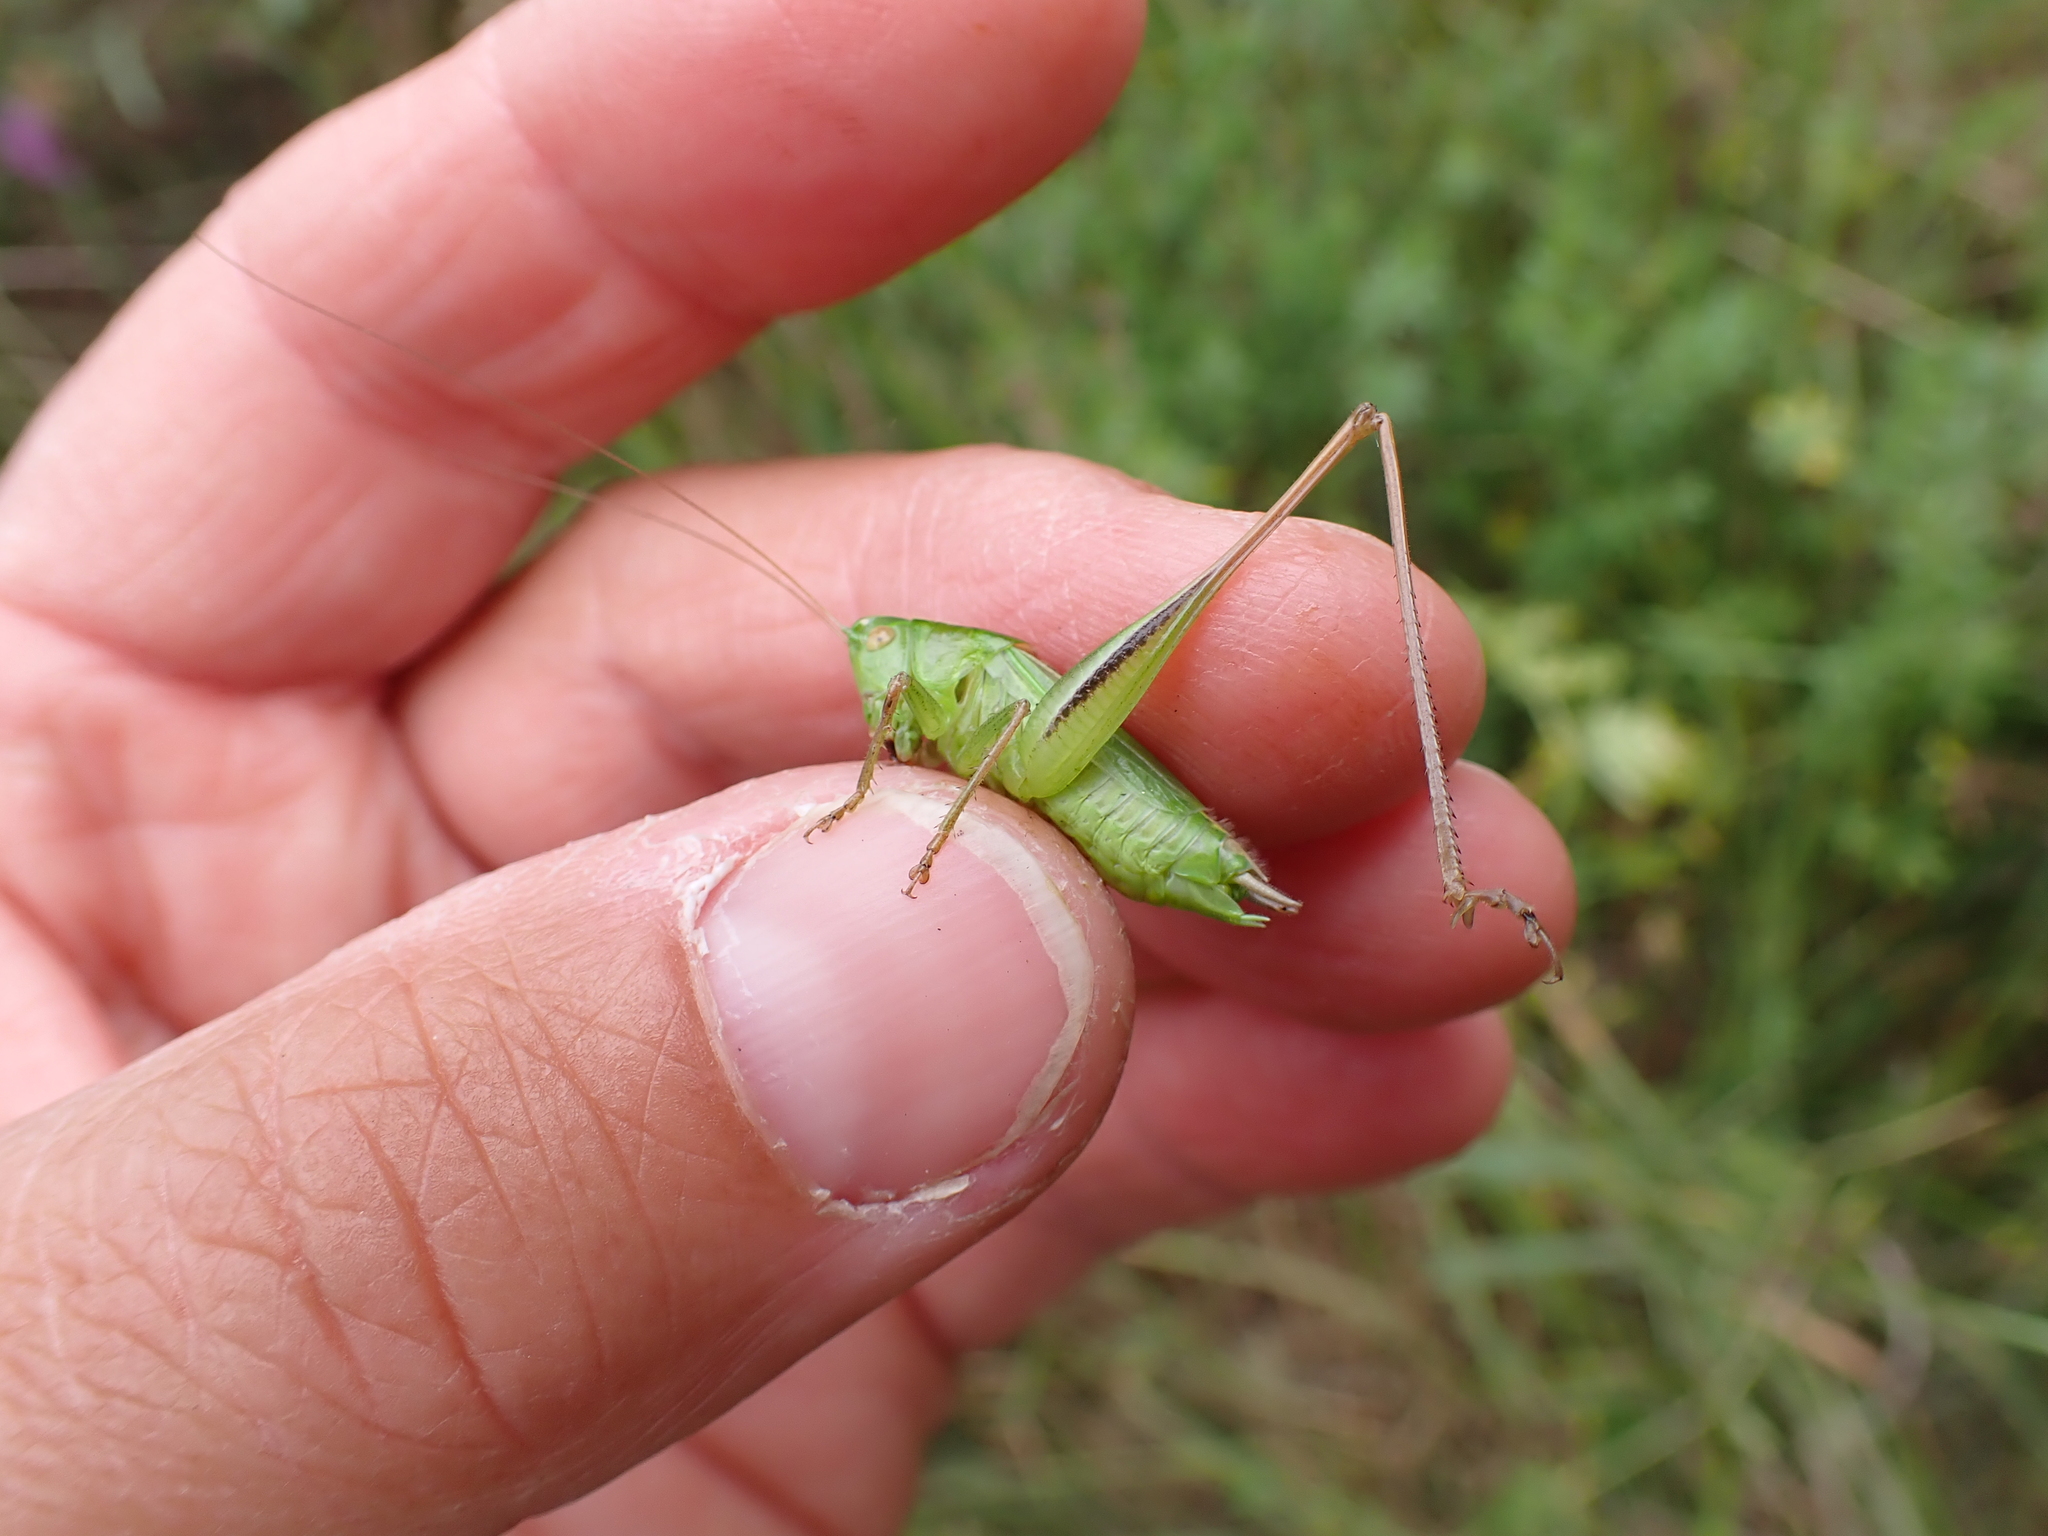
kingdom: Animalia
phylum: Arthropoda
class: Insecta
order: Orthoptera
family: Tettigoniidae
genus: Bicolorana
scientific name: Bicolorana bicolor
